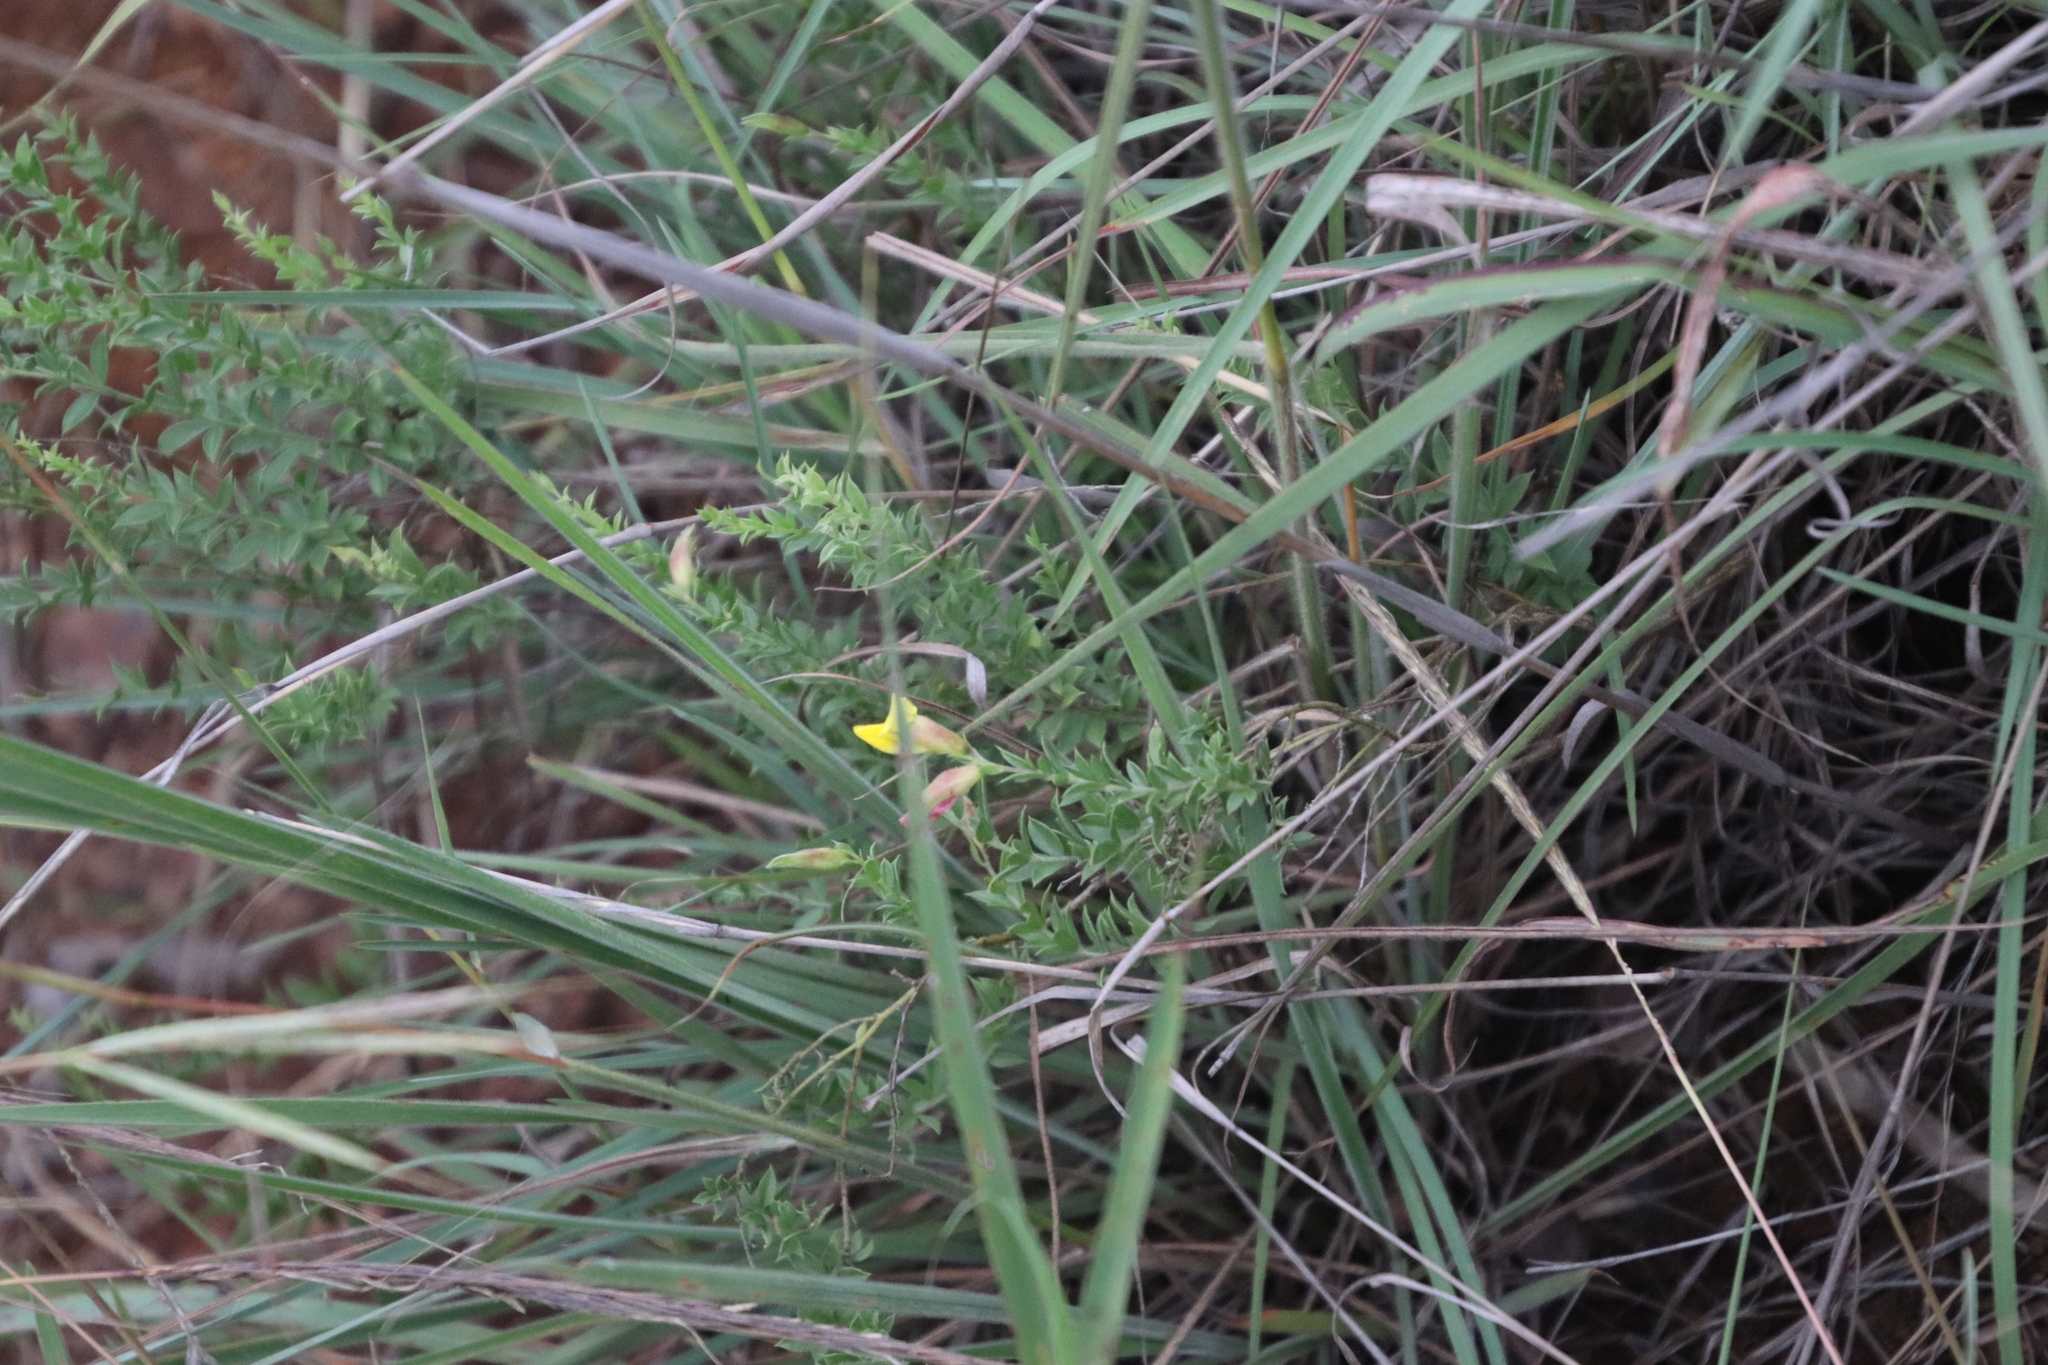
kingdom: Plantae
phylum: Tracheophyta
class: Magnoliopsida
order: Fabales
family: Fabaceae
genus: Pearsonia
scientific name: Pearsonia aristata
